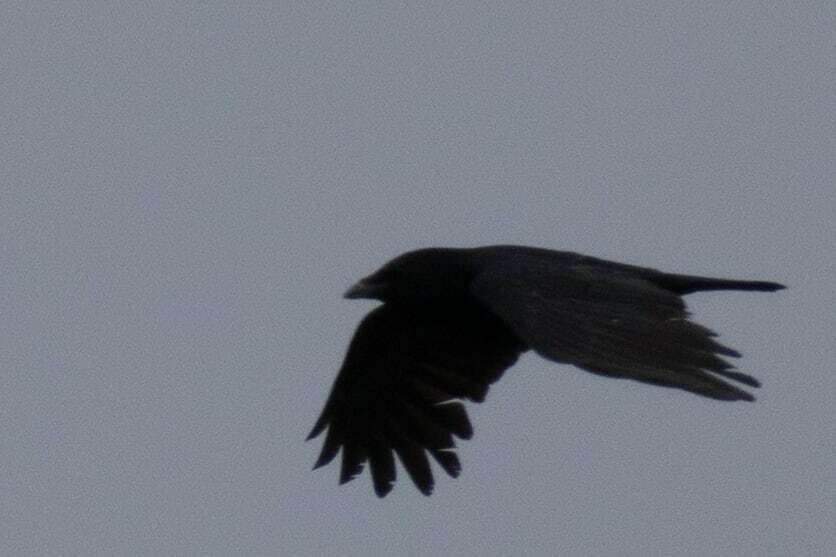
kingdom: Animalia
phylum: Chordata
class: Aves
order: Passeriformes
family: Corvidae
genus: Corvus
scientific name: Corvus corone
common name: Carrion crow
